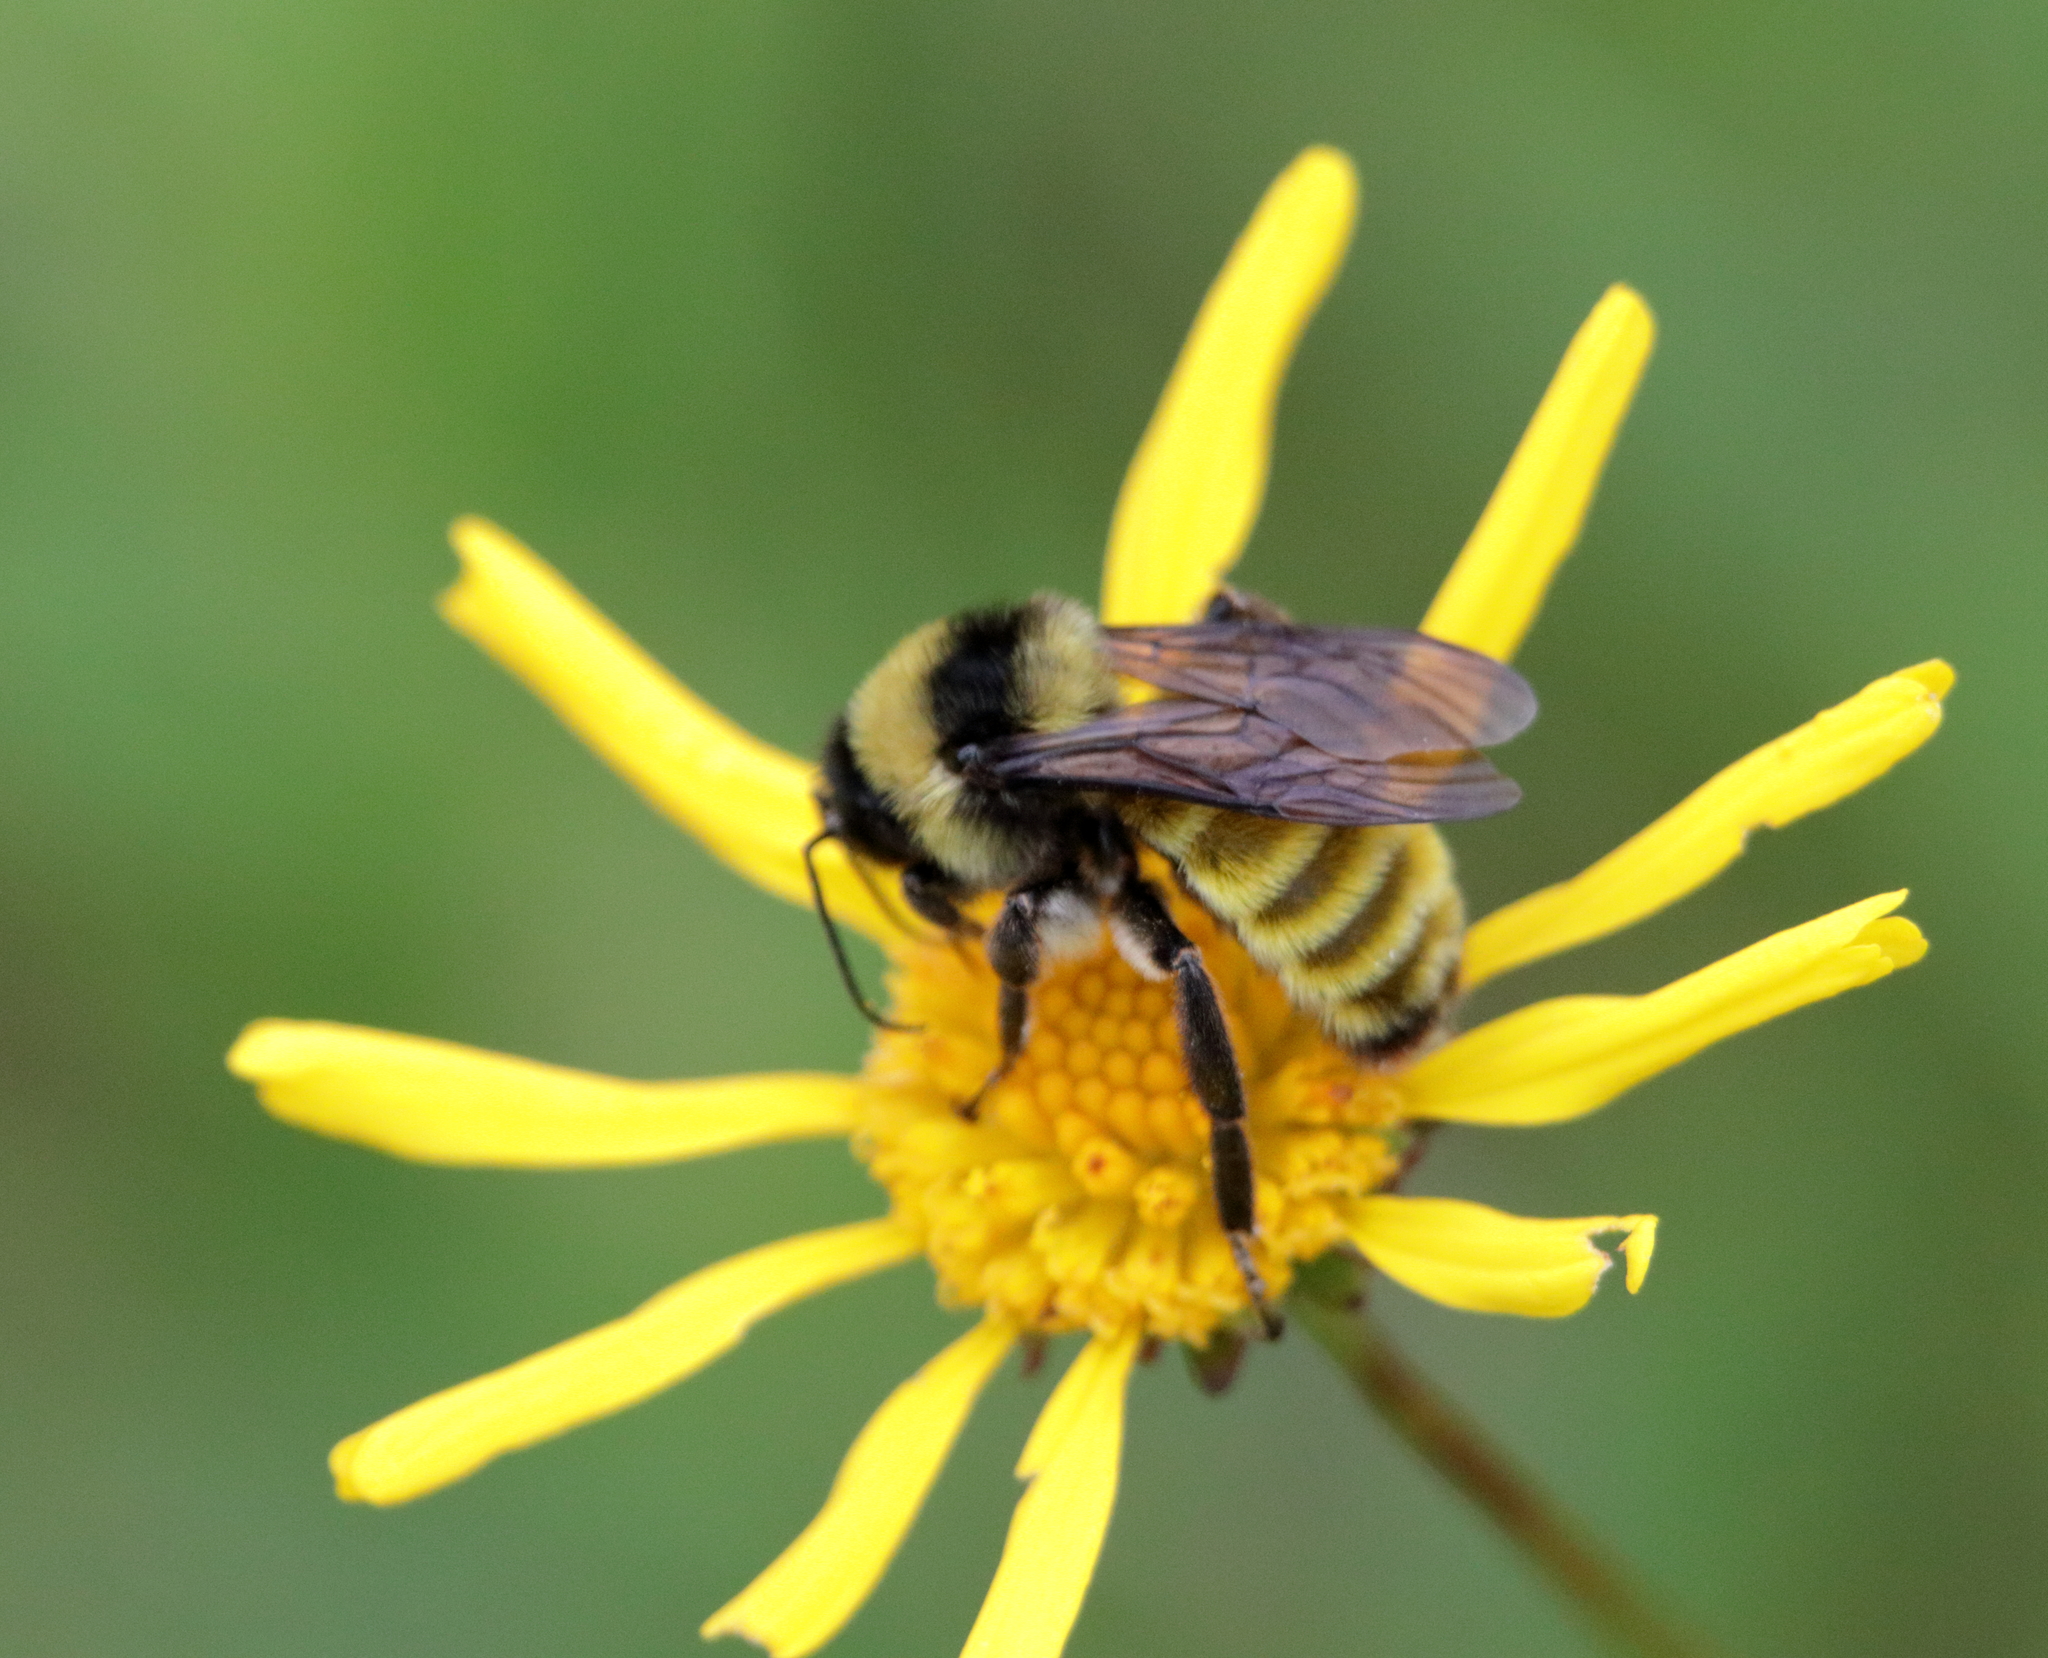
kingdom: Animalia
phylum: Arthropoda
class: Insecta
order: Hymenoptera
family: Apidae
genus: Bombus
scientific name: Bombus pensylvanicus
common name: Bumble bee
